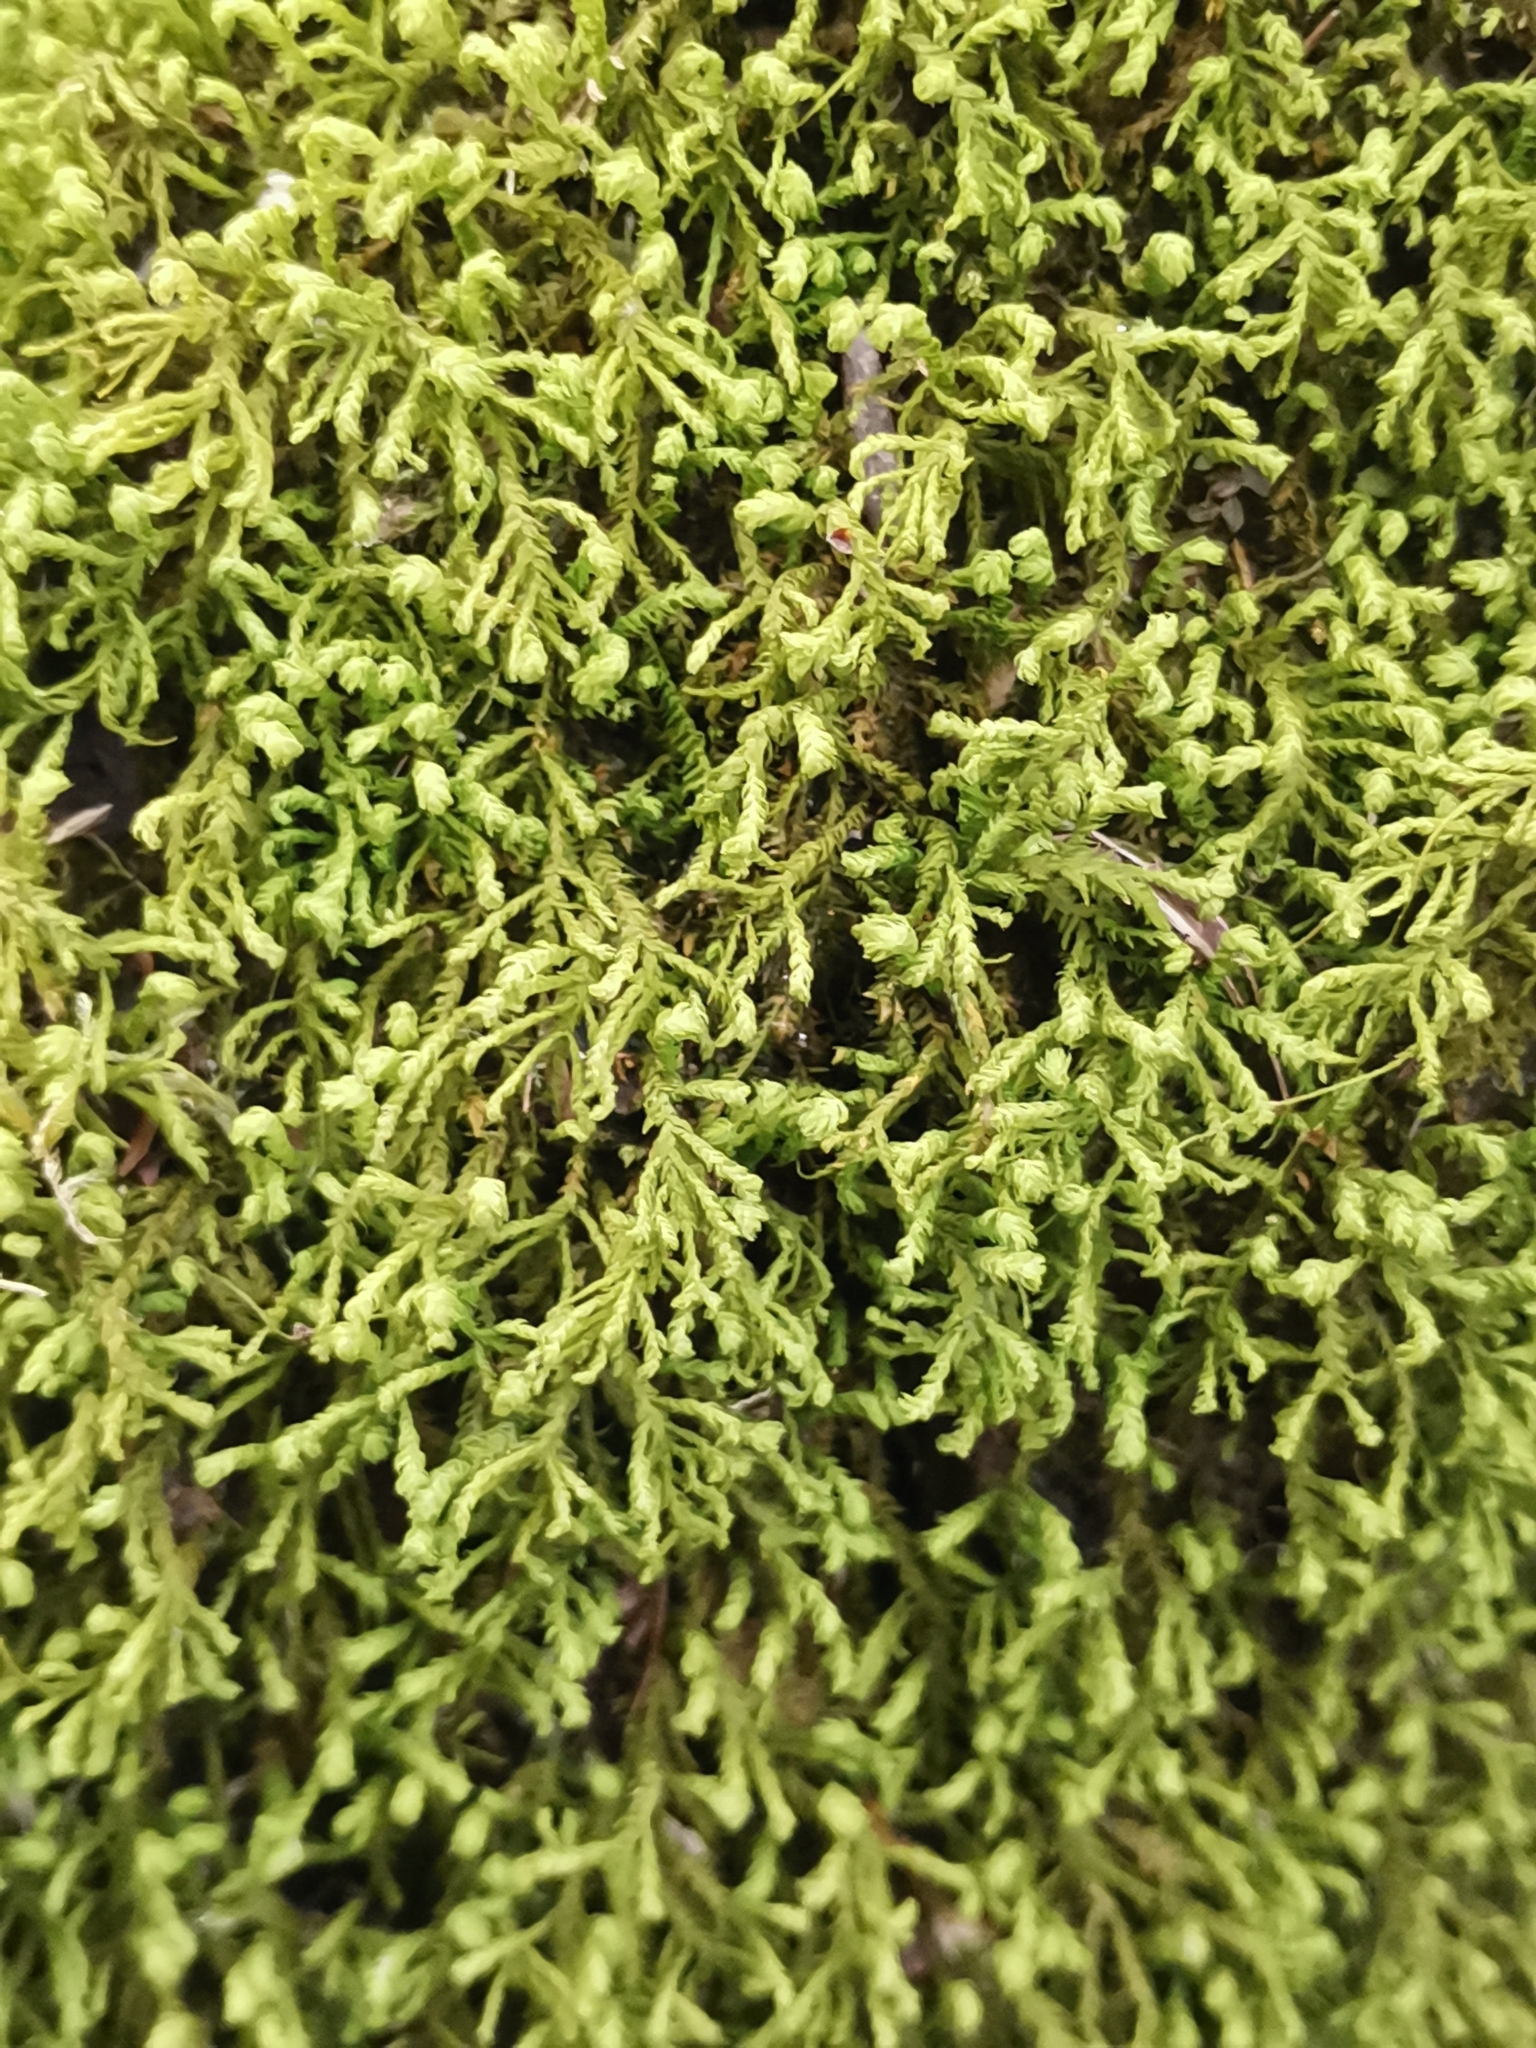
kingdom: Plantae
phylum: Bryophyta
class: Bryopsida
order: Hypnales
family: Neckeraceae
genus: Pseudanomodon
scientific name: Pseudanomodon attenuatus
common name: Tree-skirt moss
